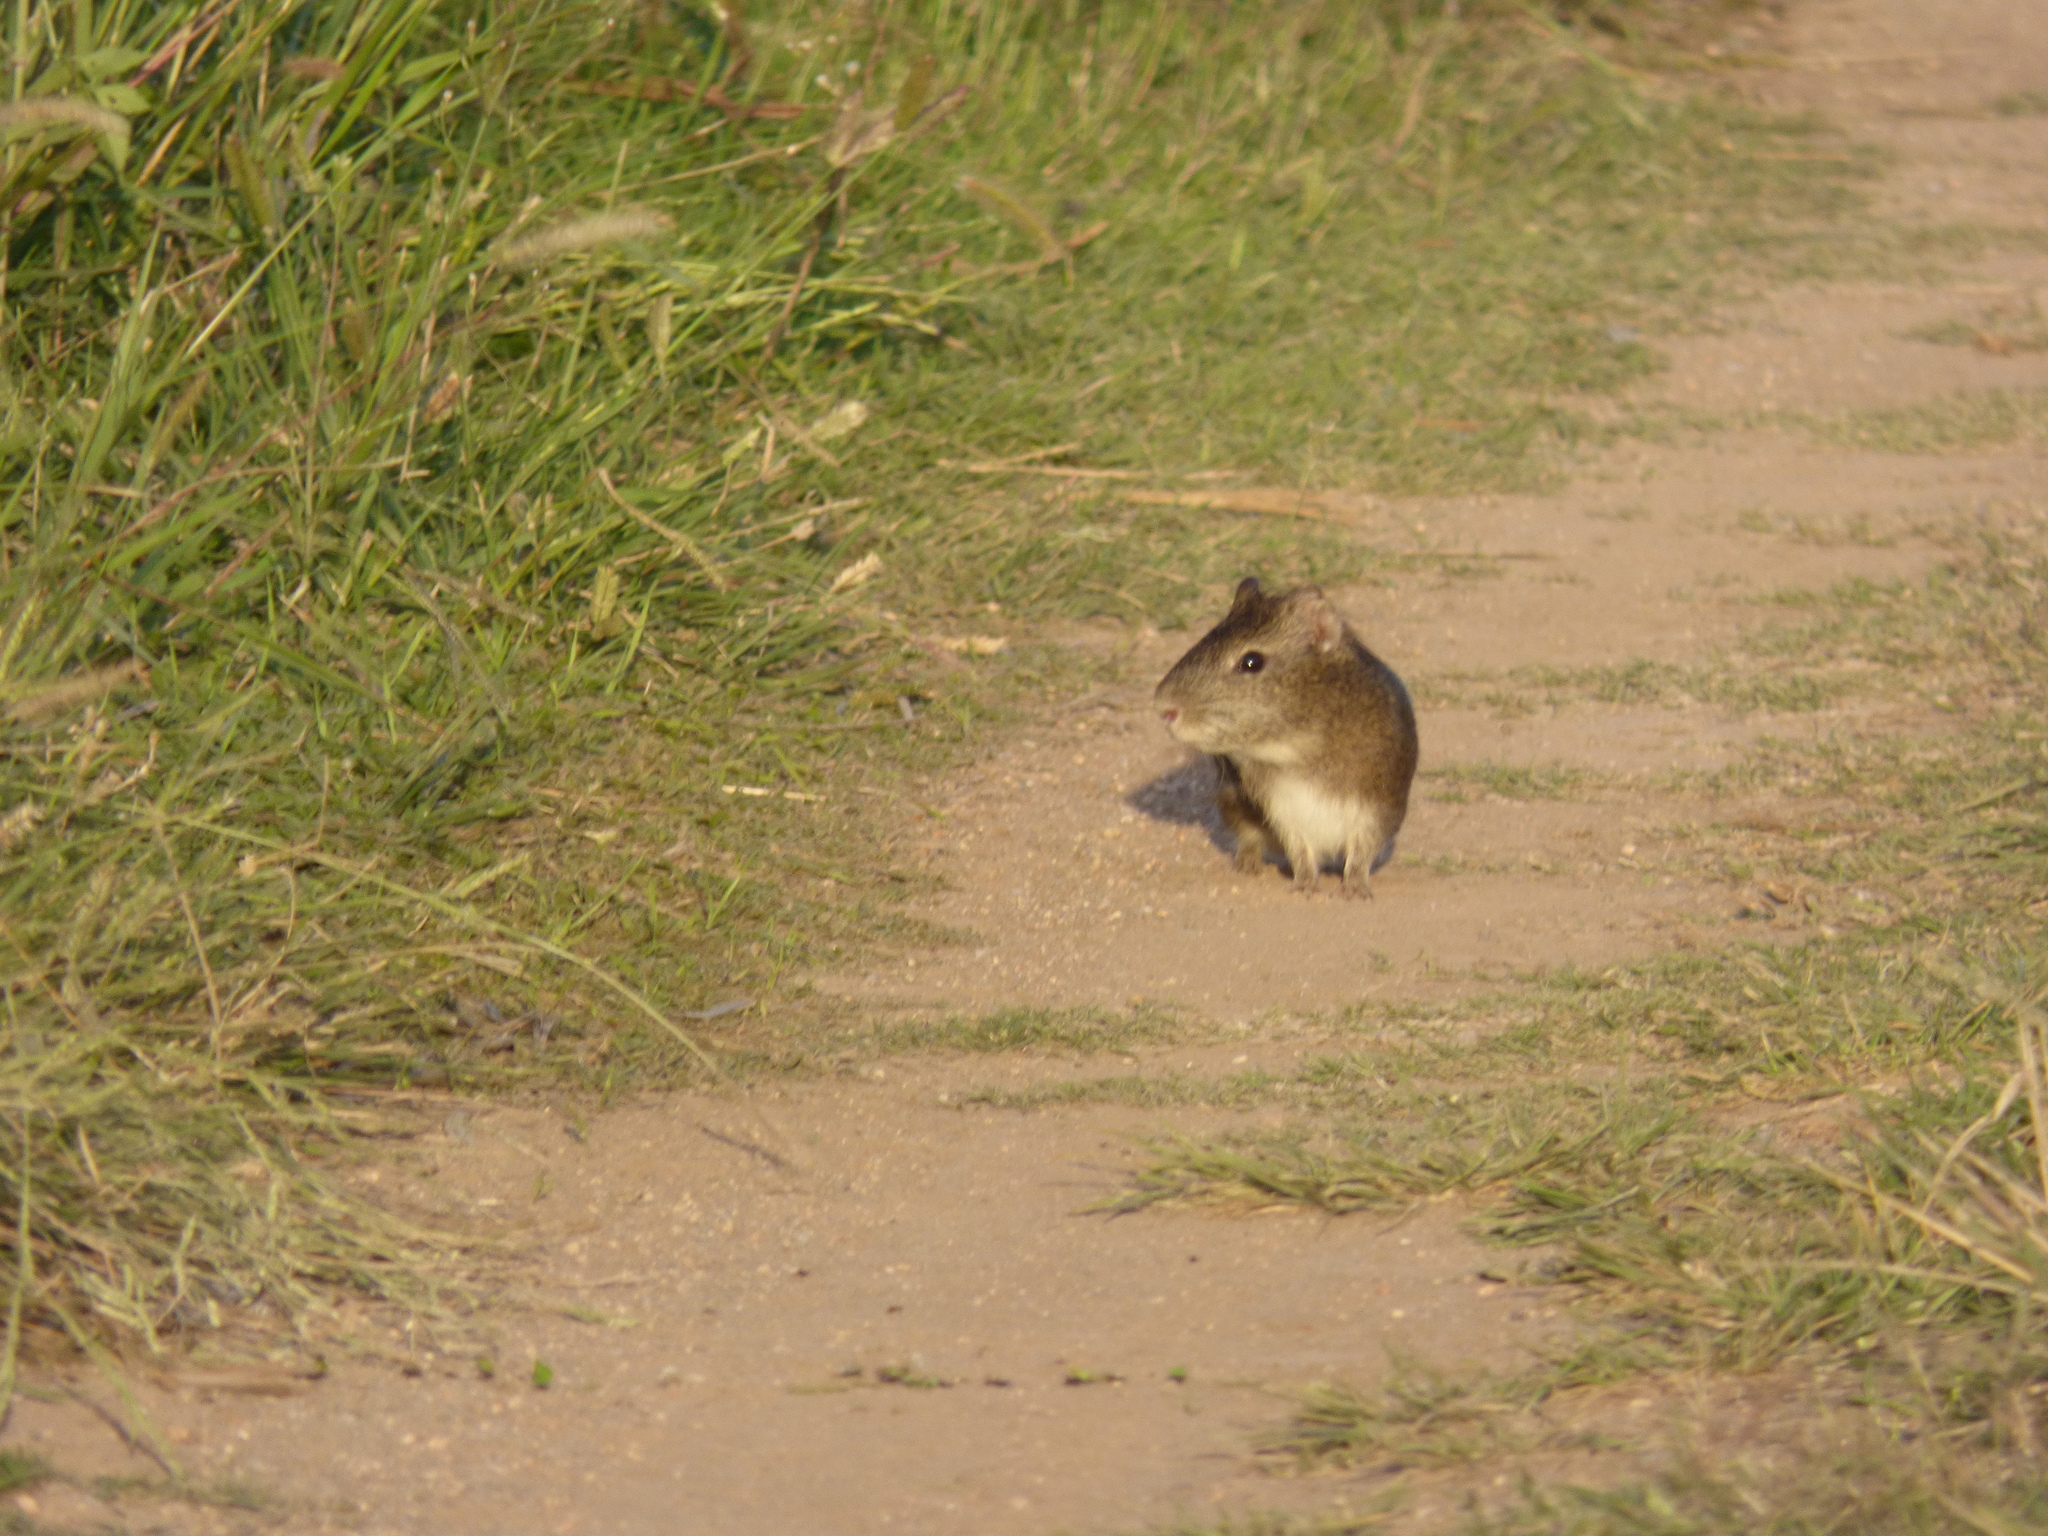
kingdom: Animalia
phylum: Chordata
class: Mammalia
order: Rodentia
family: Caviidae
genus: Cavia
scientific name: Cavia aperea
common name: Brazilian guinea pig
